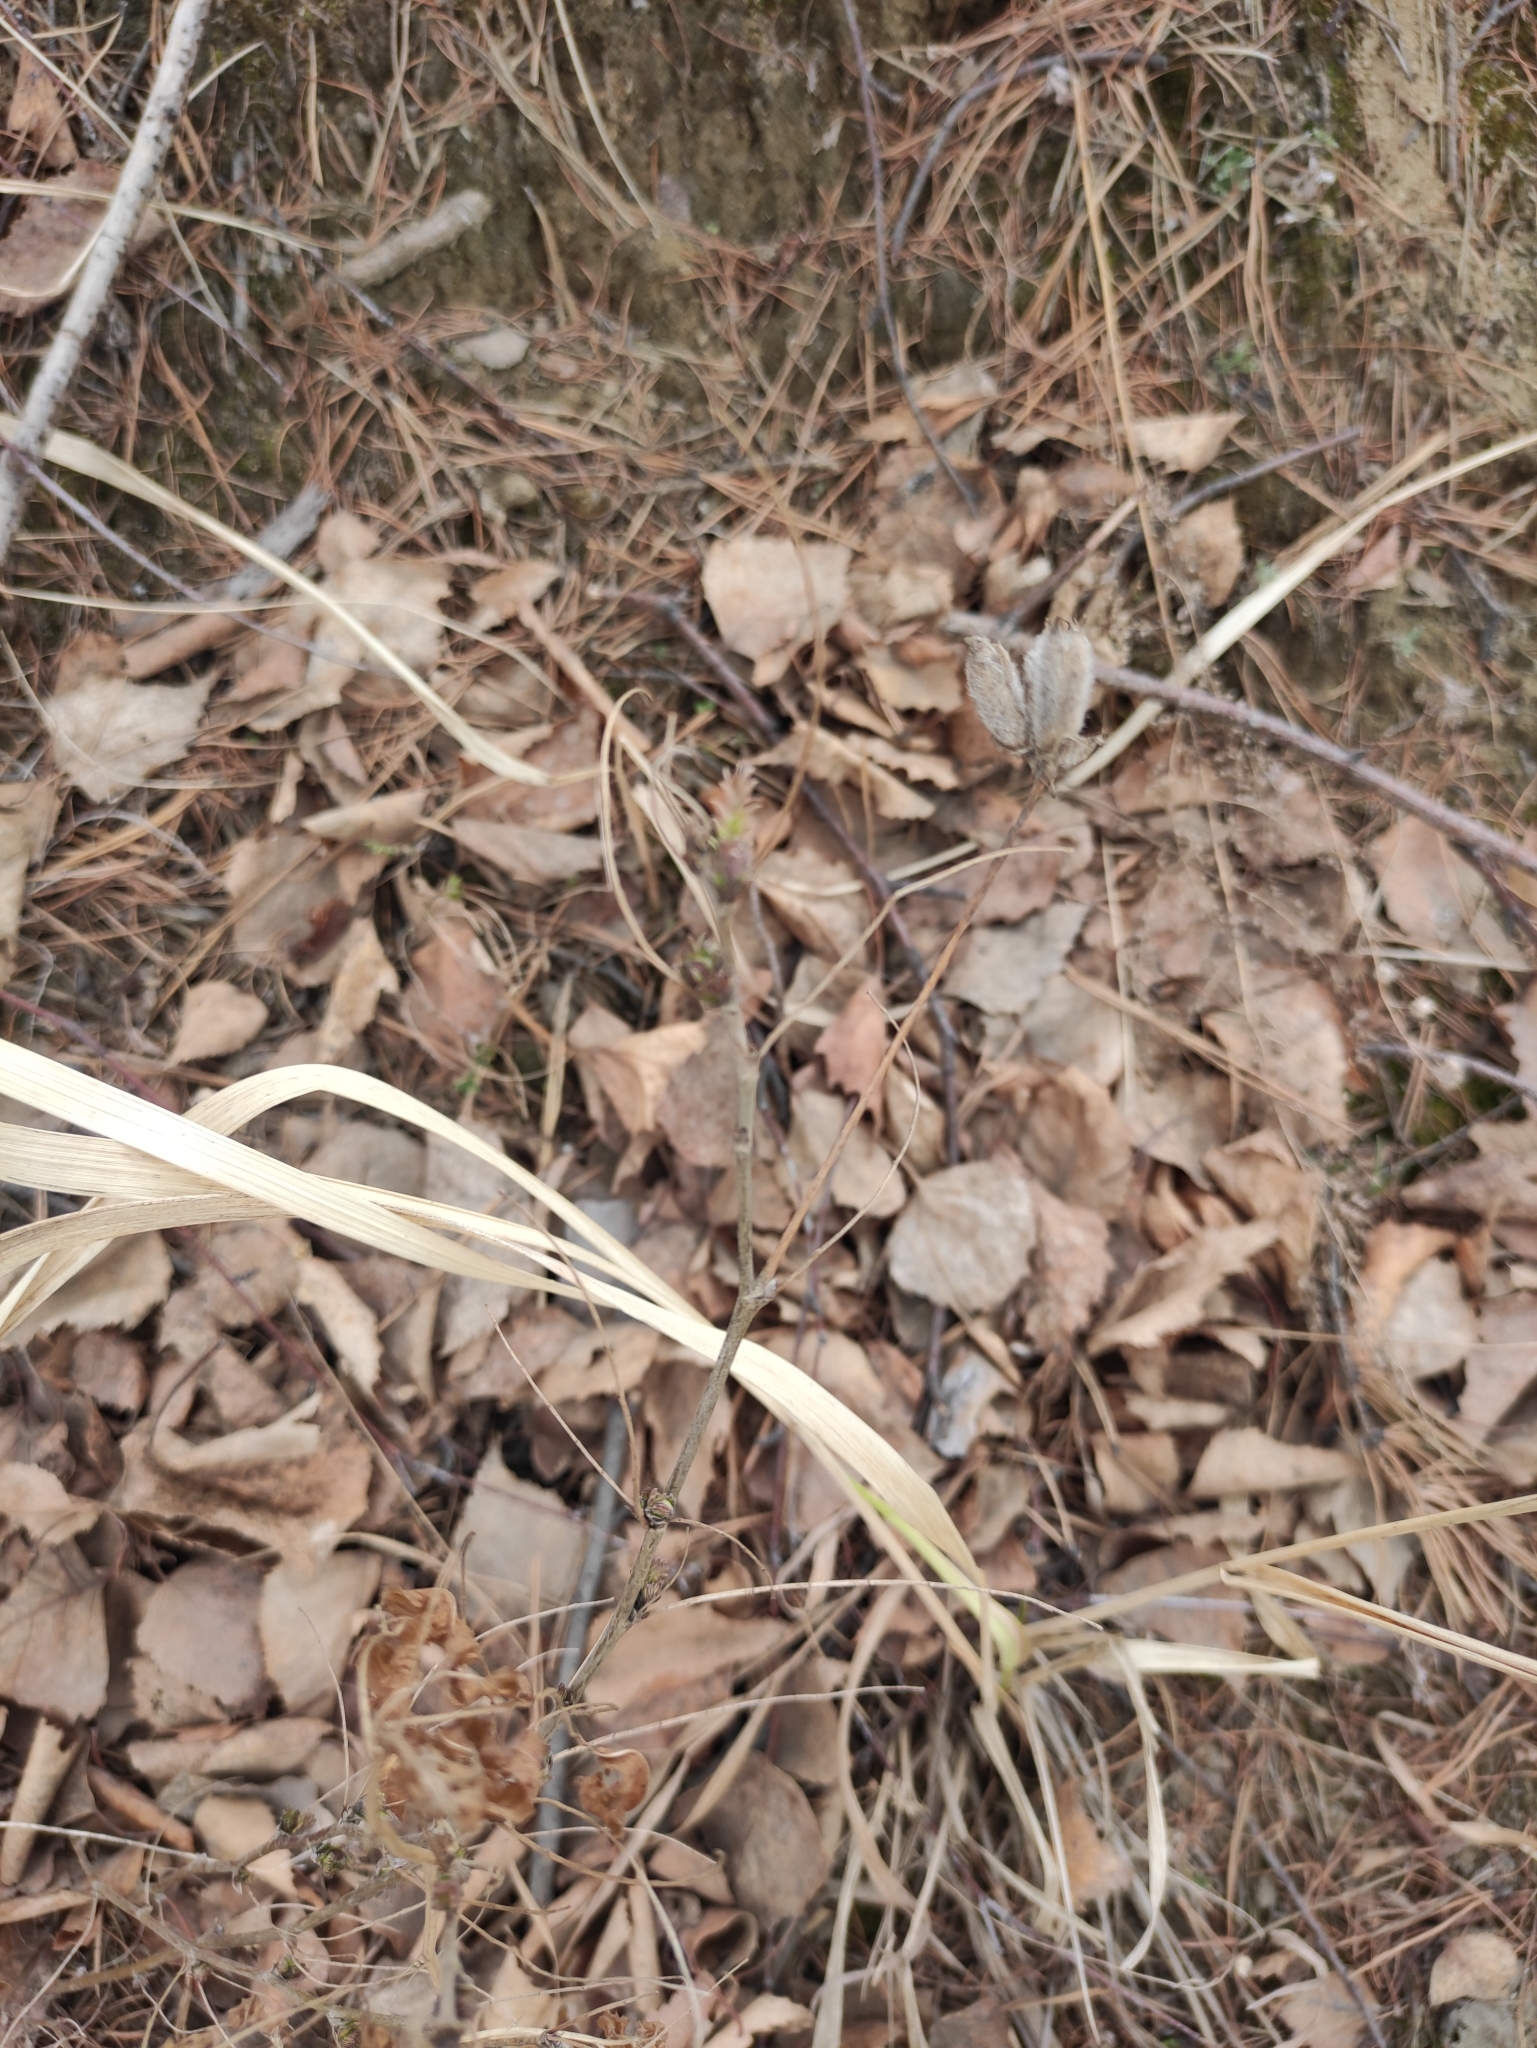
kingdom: Plantae
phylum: Tracheophyta
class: Magnoliopsida
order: Fabales
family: Fabaceae
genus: Astragalus
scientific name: Astragalus syriacus
